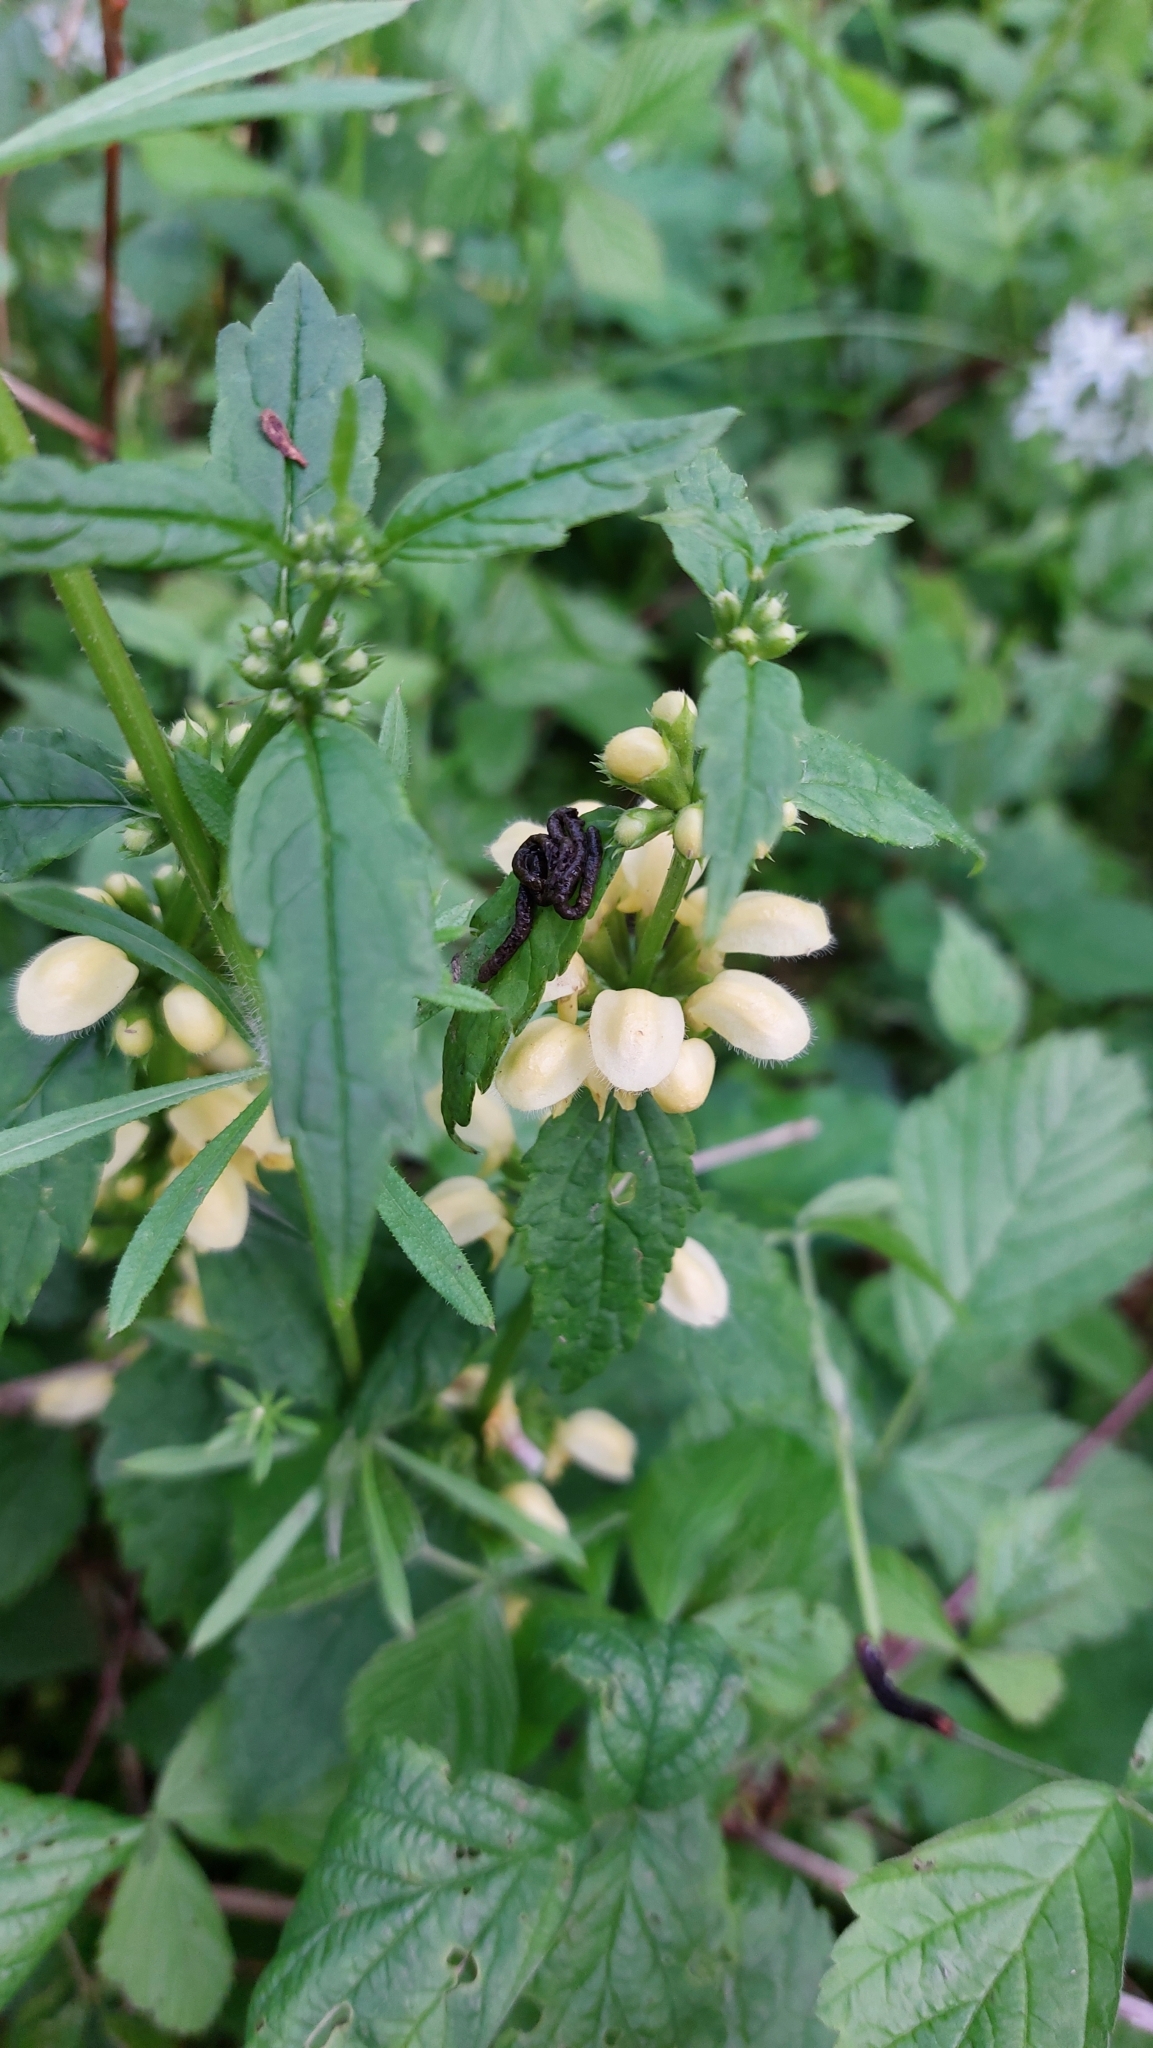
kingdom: Plantae
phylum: Tracheophyta
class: Magnoliopsida
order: Lamiales
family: Lamiaceae
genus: Lamium
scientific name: Lamium galeobdolon
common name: Yellow archangel
